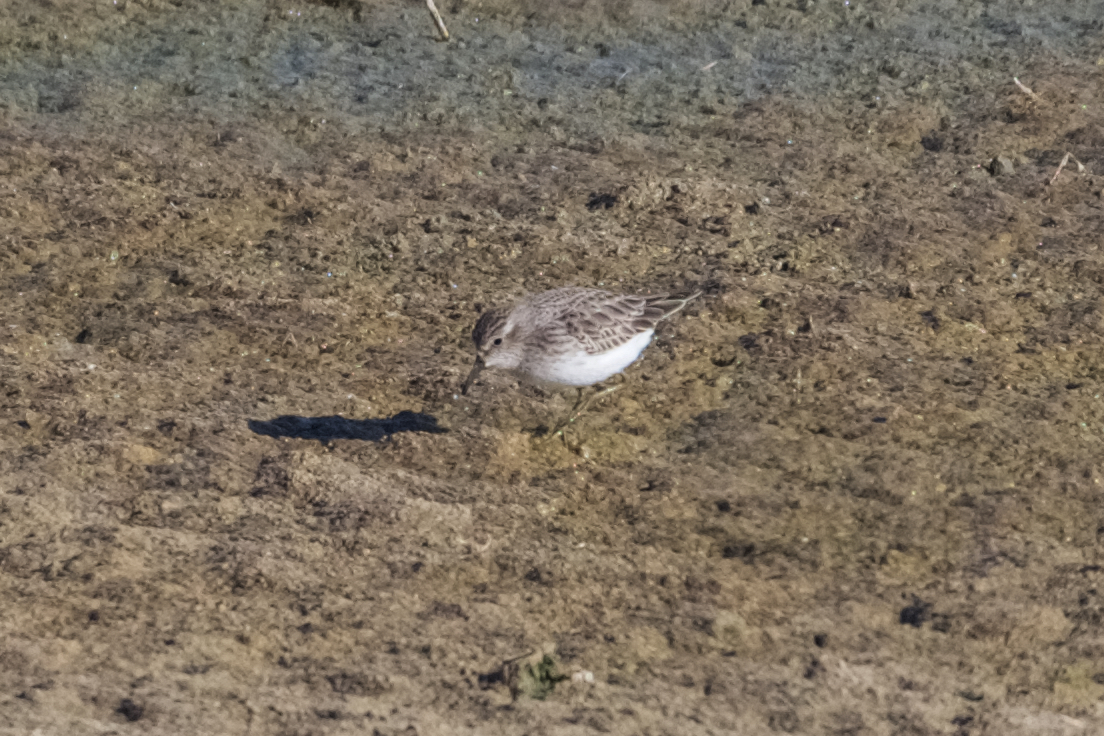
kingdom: Animalia
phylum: Chordata
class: Aves
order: Charadriiformes
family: Scolopacidae
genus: Calidris
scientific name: Calidris minutilla
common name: Least sandpiper
